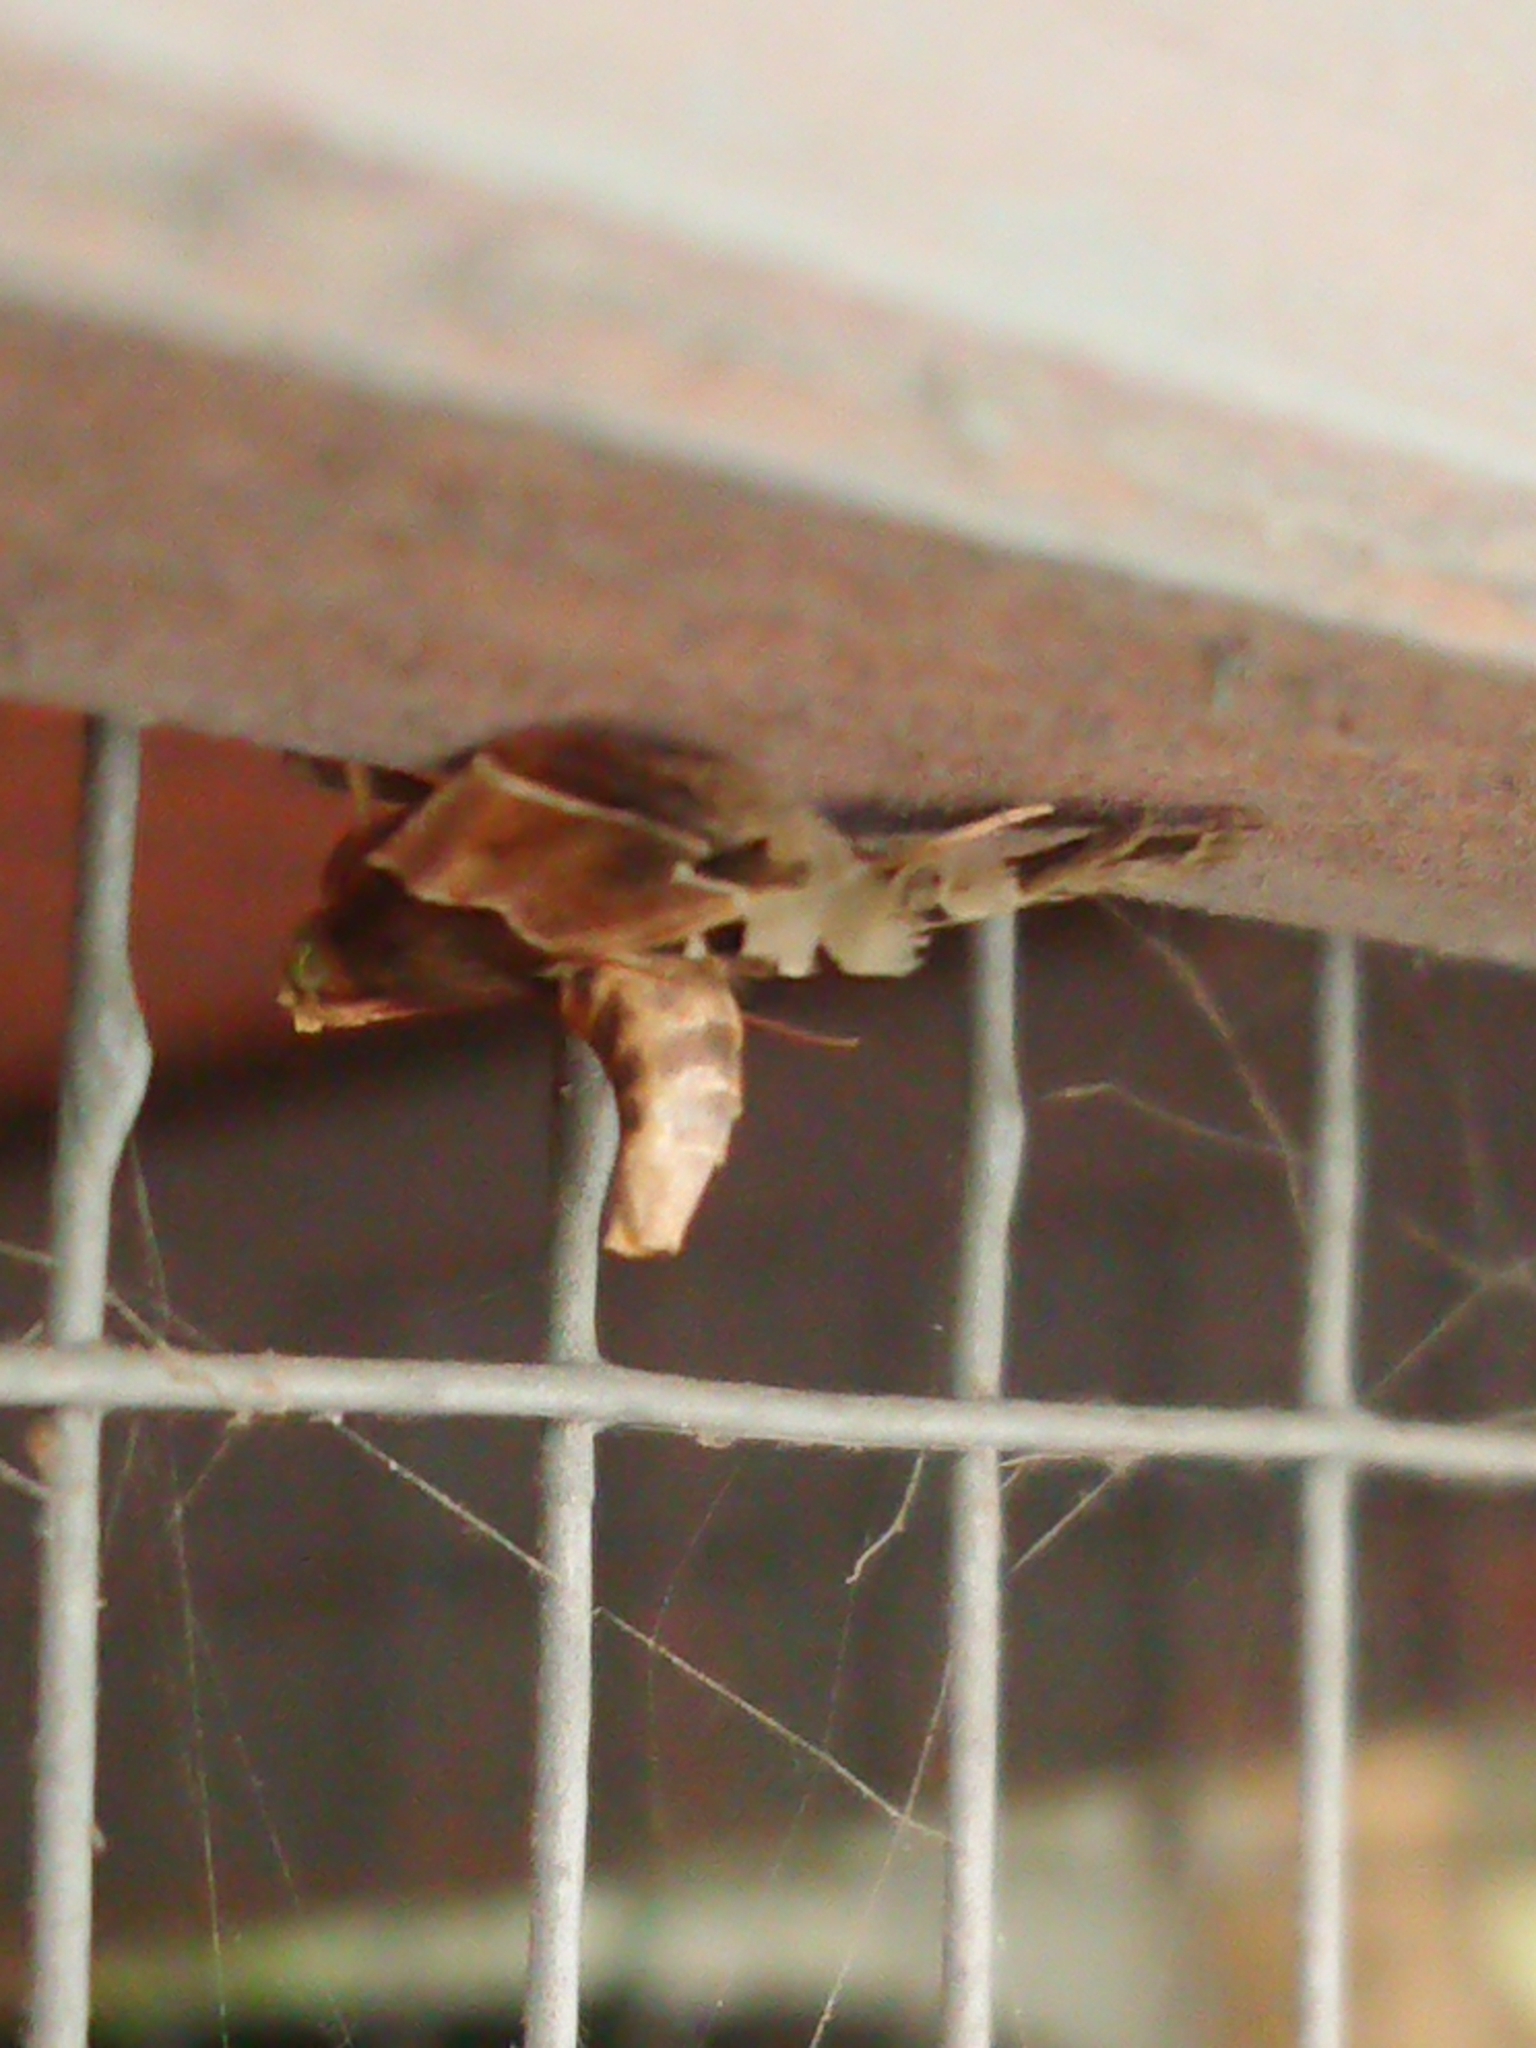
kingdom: Animalia
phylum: Arthropoda
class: Insecta
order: Lepidoptera
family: Pyralidae
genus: Pyralis
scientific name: Pyralis farinalis
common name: Meal moth
